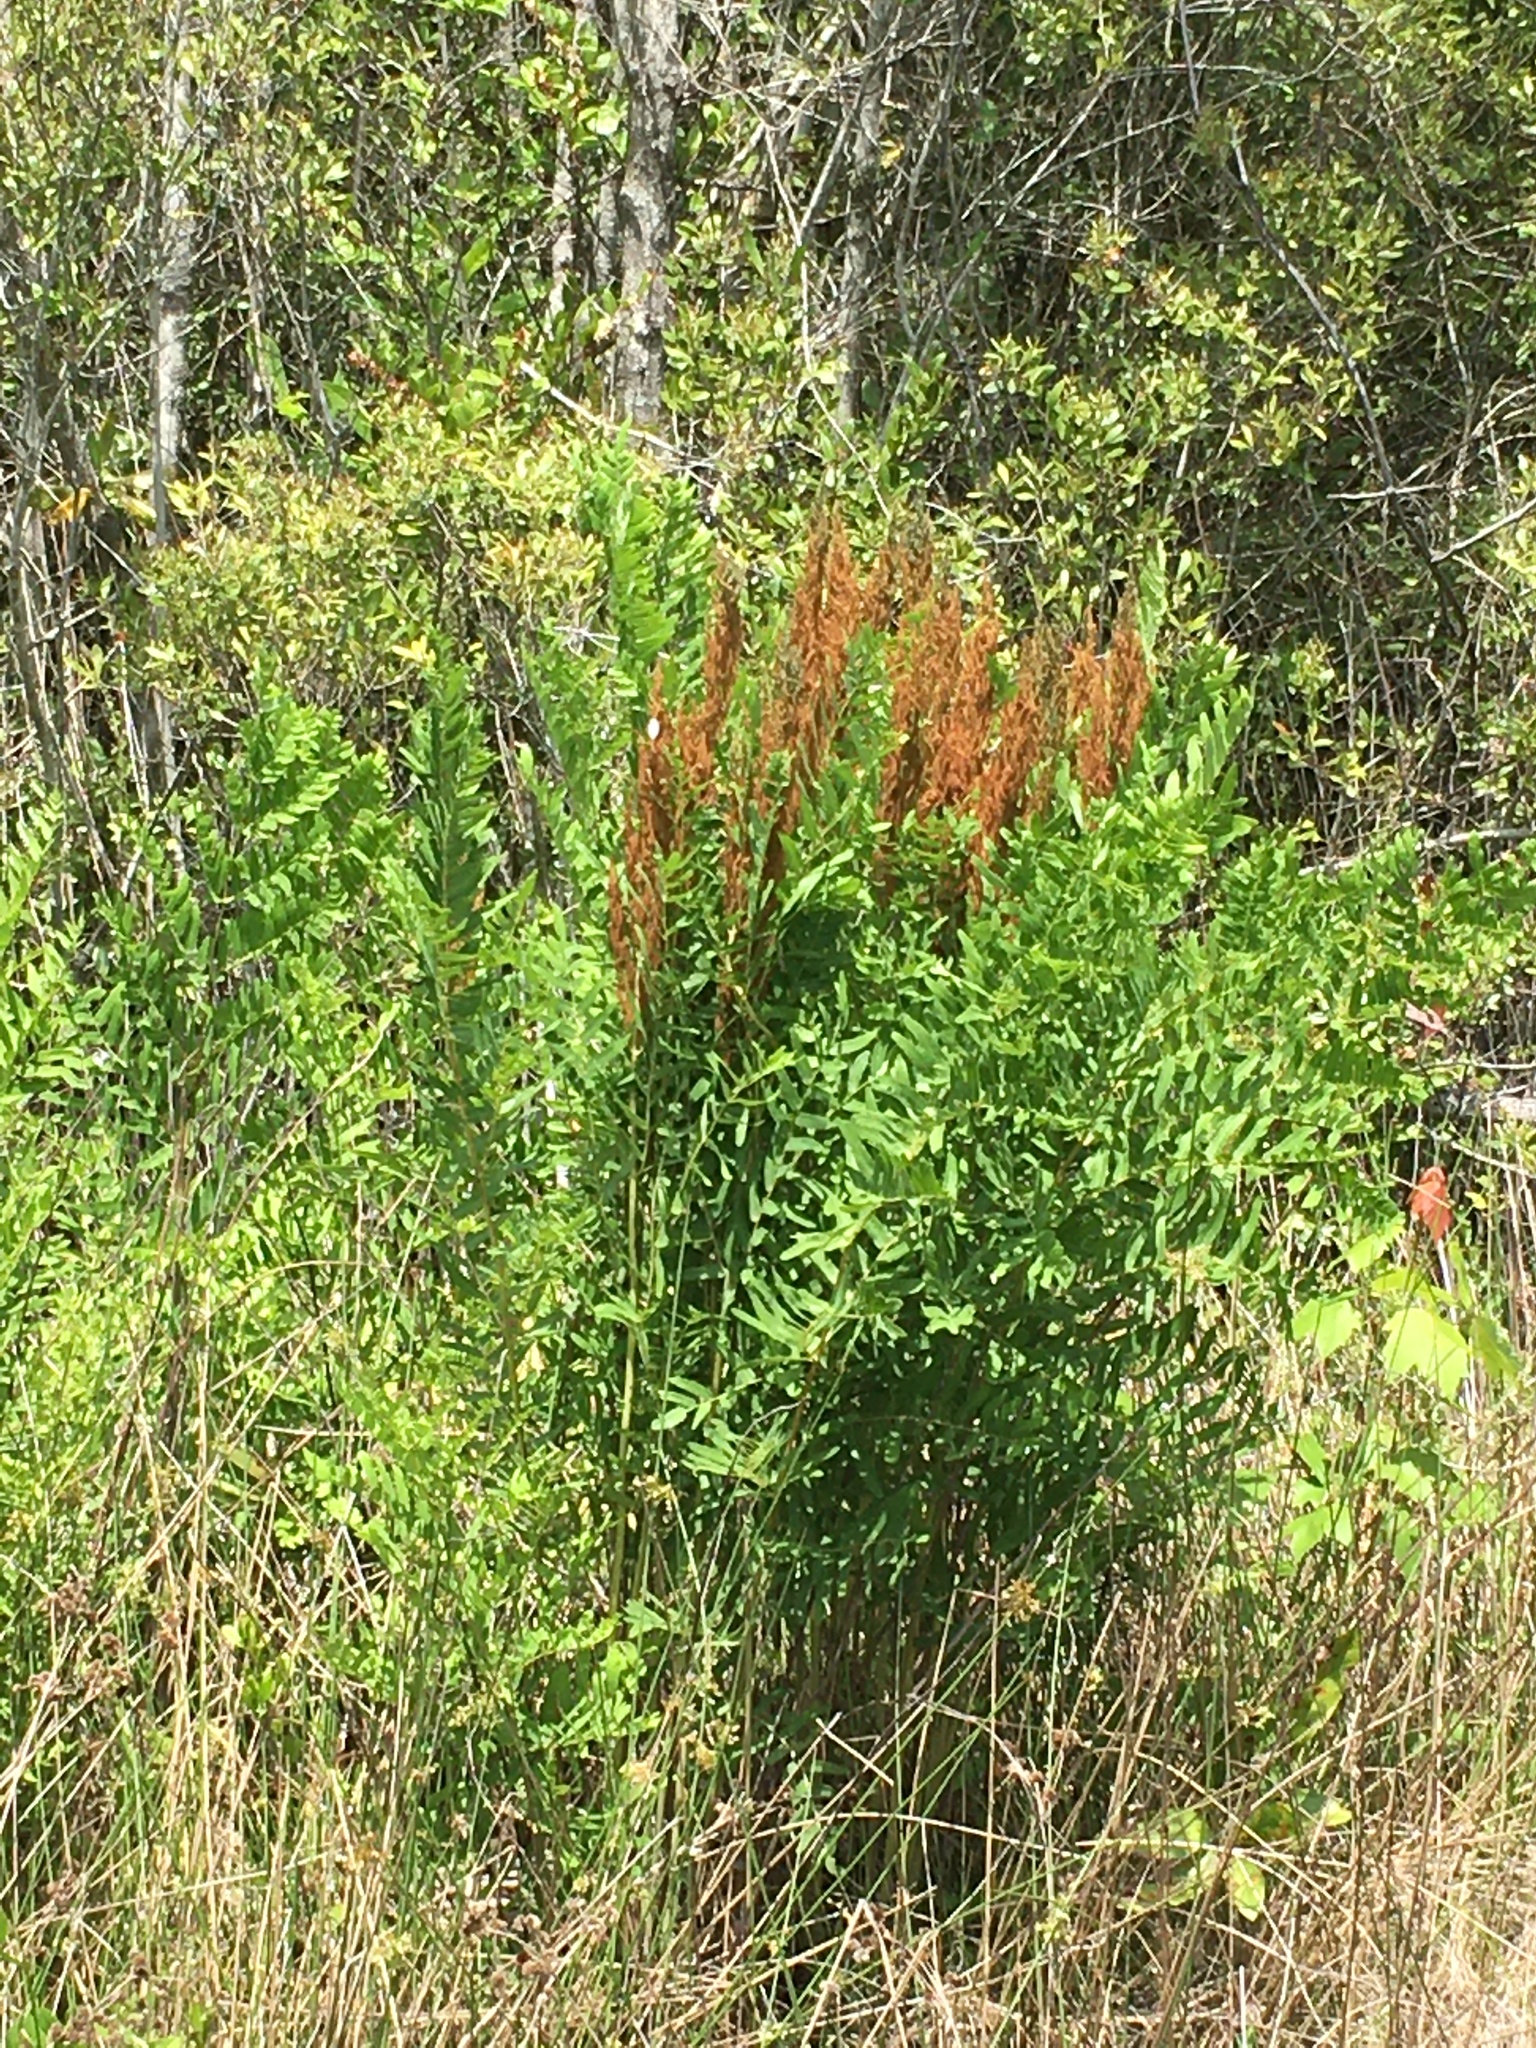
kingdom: Plantae
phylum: Tracheophyta
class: Polypodiopsida
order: Osmundales
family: Osmundaceae
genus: Osmunda
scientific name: Osmunda spectabilis
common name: American royal fern
